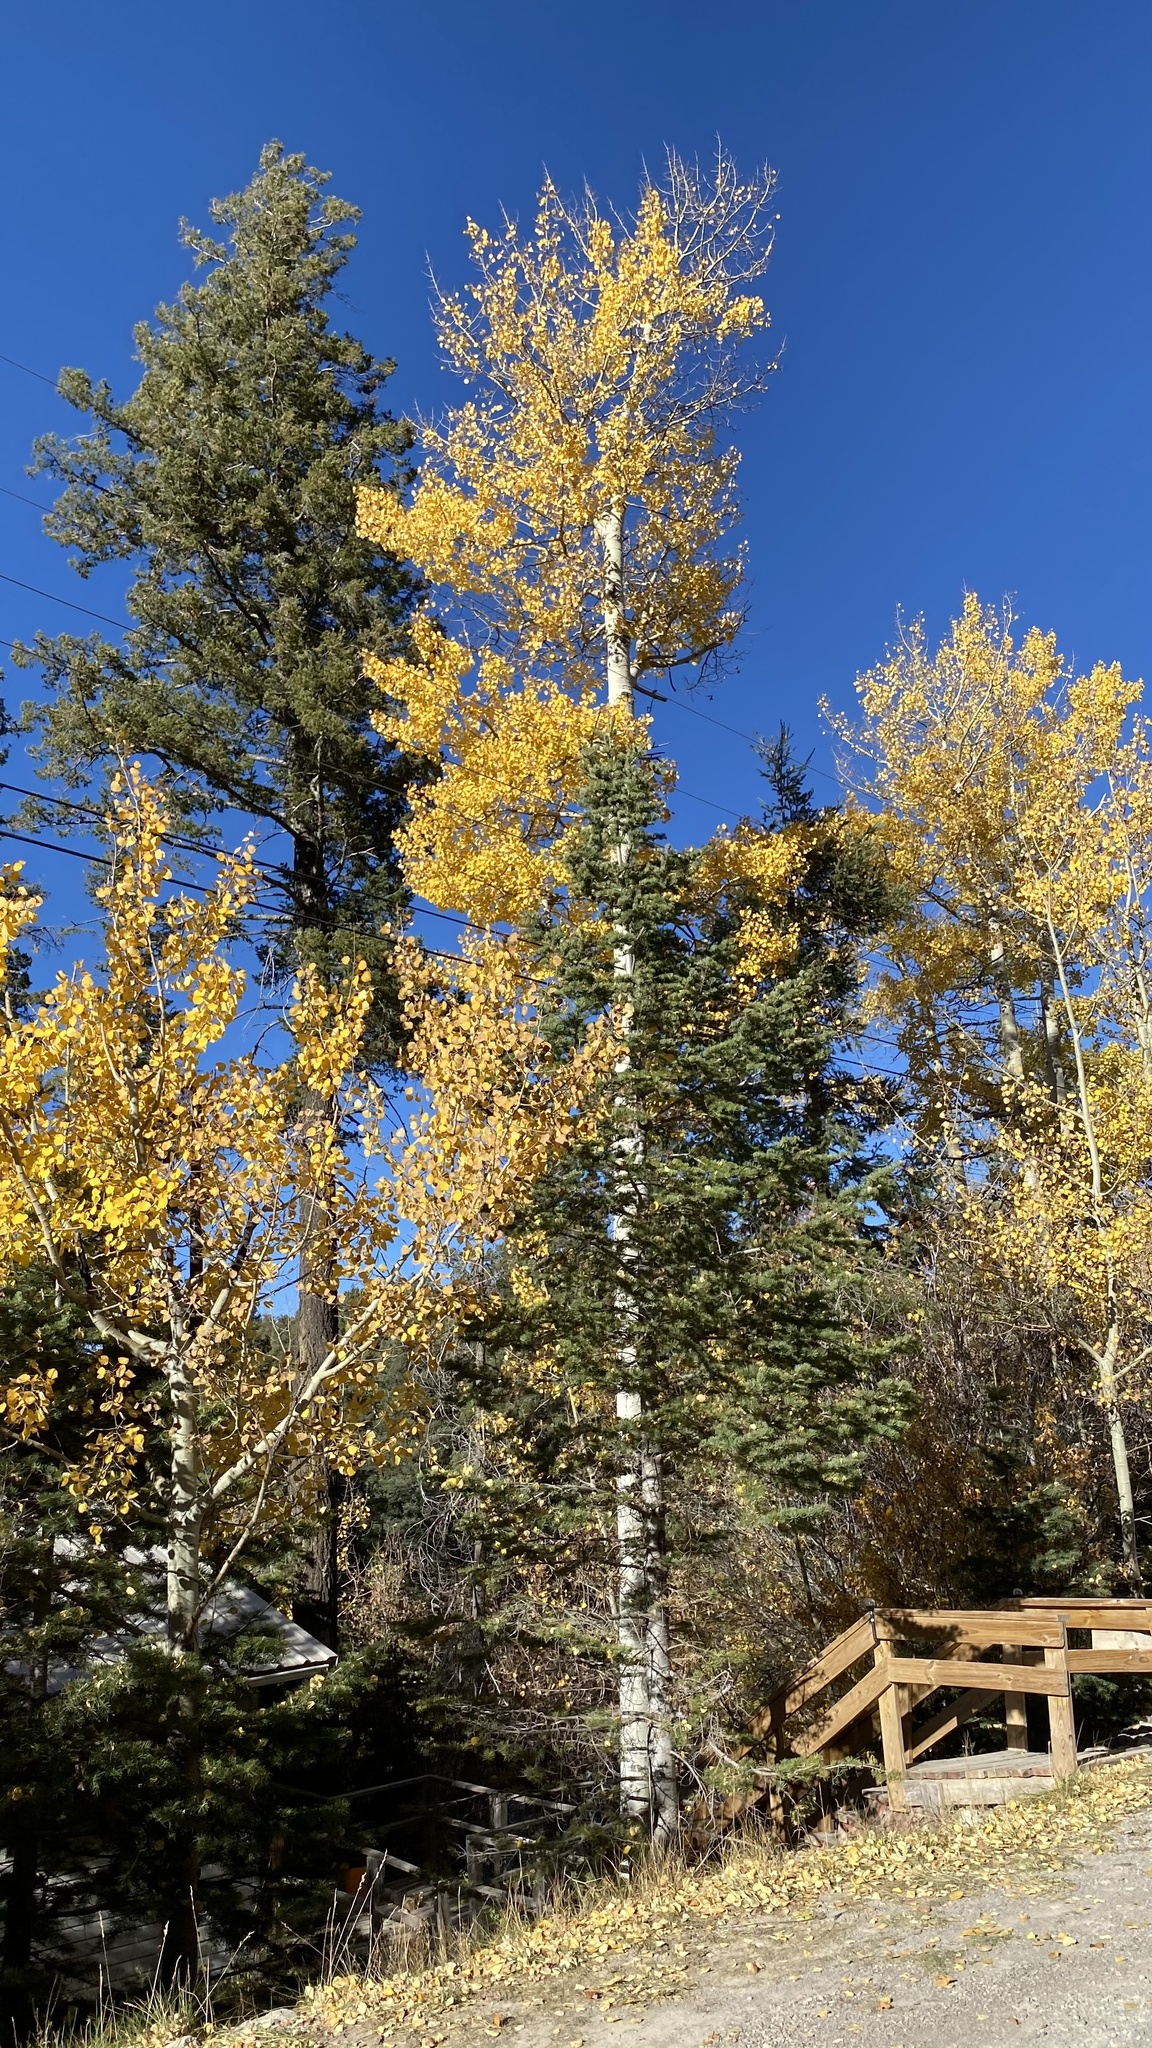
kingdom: Plantae
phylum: Tracheophyta
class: Magnoliopsida
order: Malpighiales
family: Salicaceae
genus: Populus
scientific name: Populus tremuloides
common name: Quaking aspen
